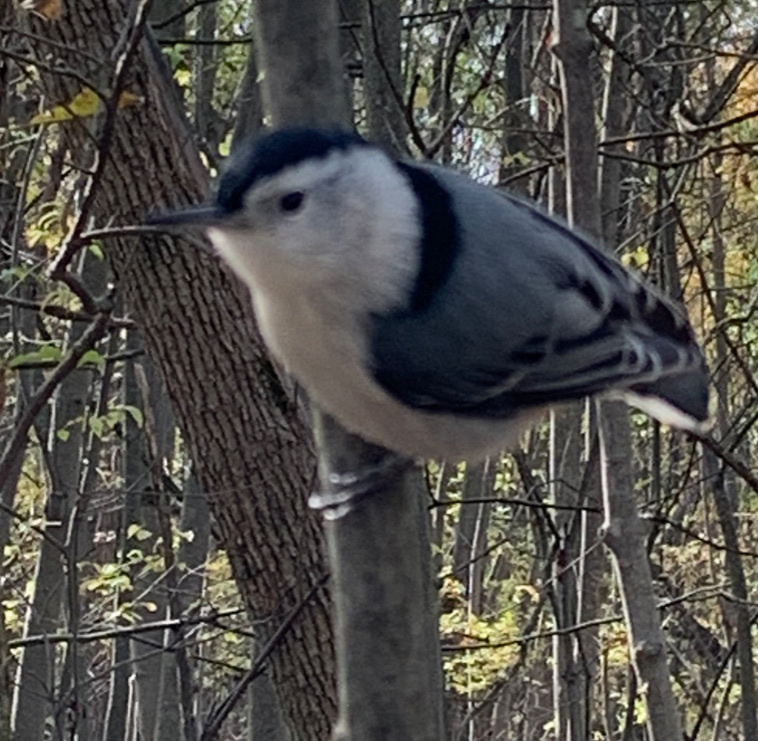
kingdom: Animalia
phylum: Chordata
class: Aves
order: Passeriformes
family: Sittidae
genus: Sitta
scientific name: Sitta carolinensis
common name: White-breasted nuthatch
